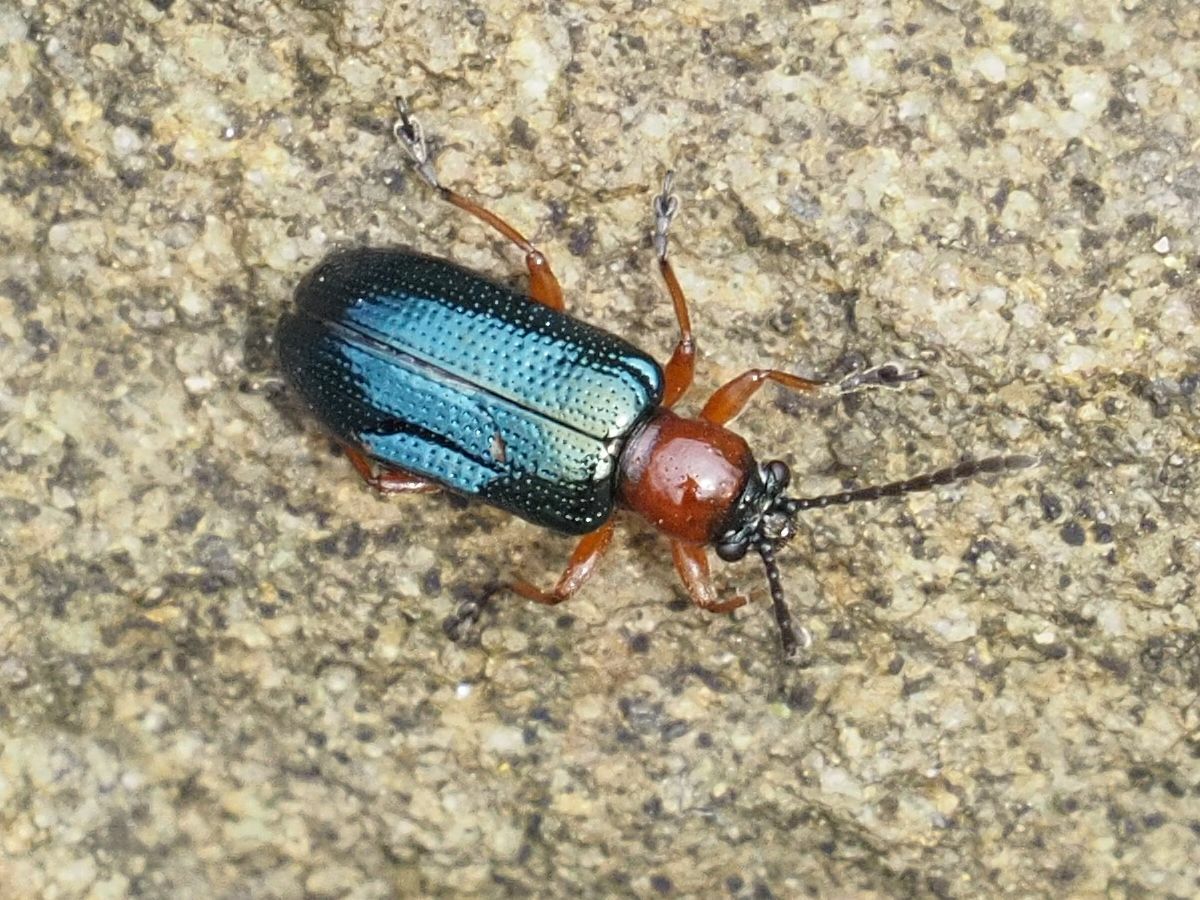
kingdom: Animalia
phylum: Arthropoda
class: Insecta
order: Coleoptera
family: Chrysomelidae
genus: Oulema
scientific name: Oulema
